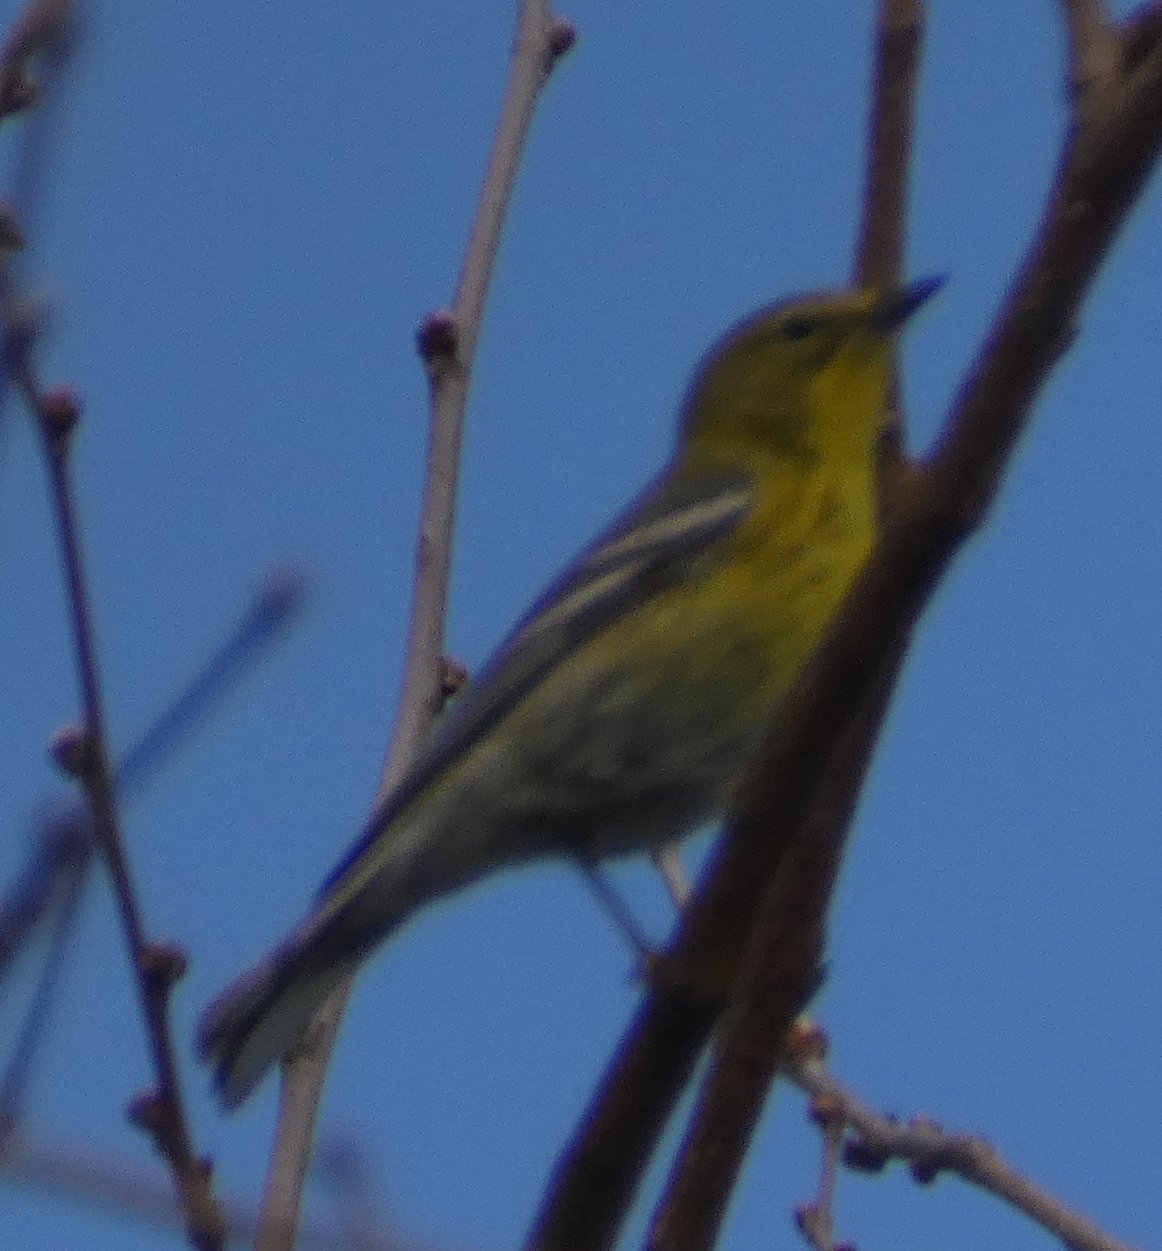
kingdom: Animalia
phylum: Chordata
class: Aves
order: Passeriformes
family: Parulidae
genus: Setophaga
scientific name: Setophaga pinus
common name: Pine warbler
